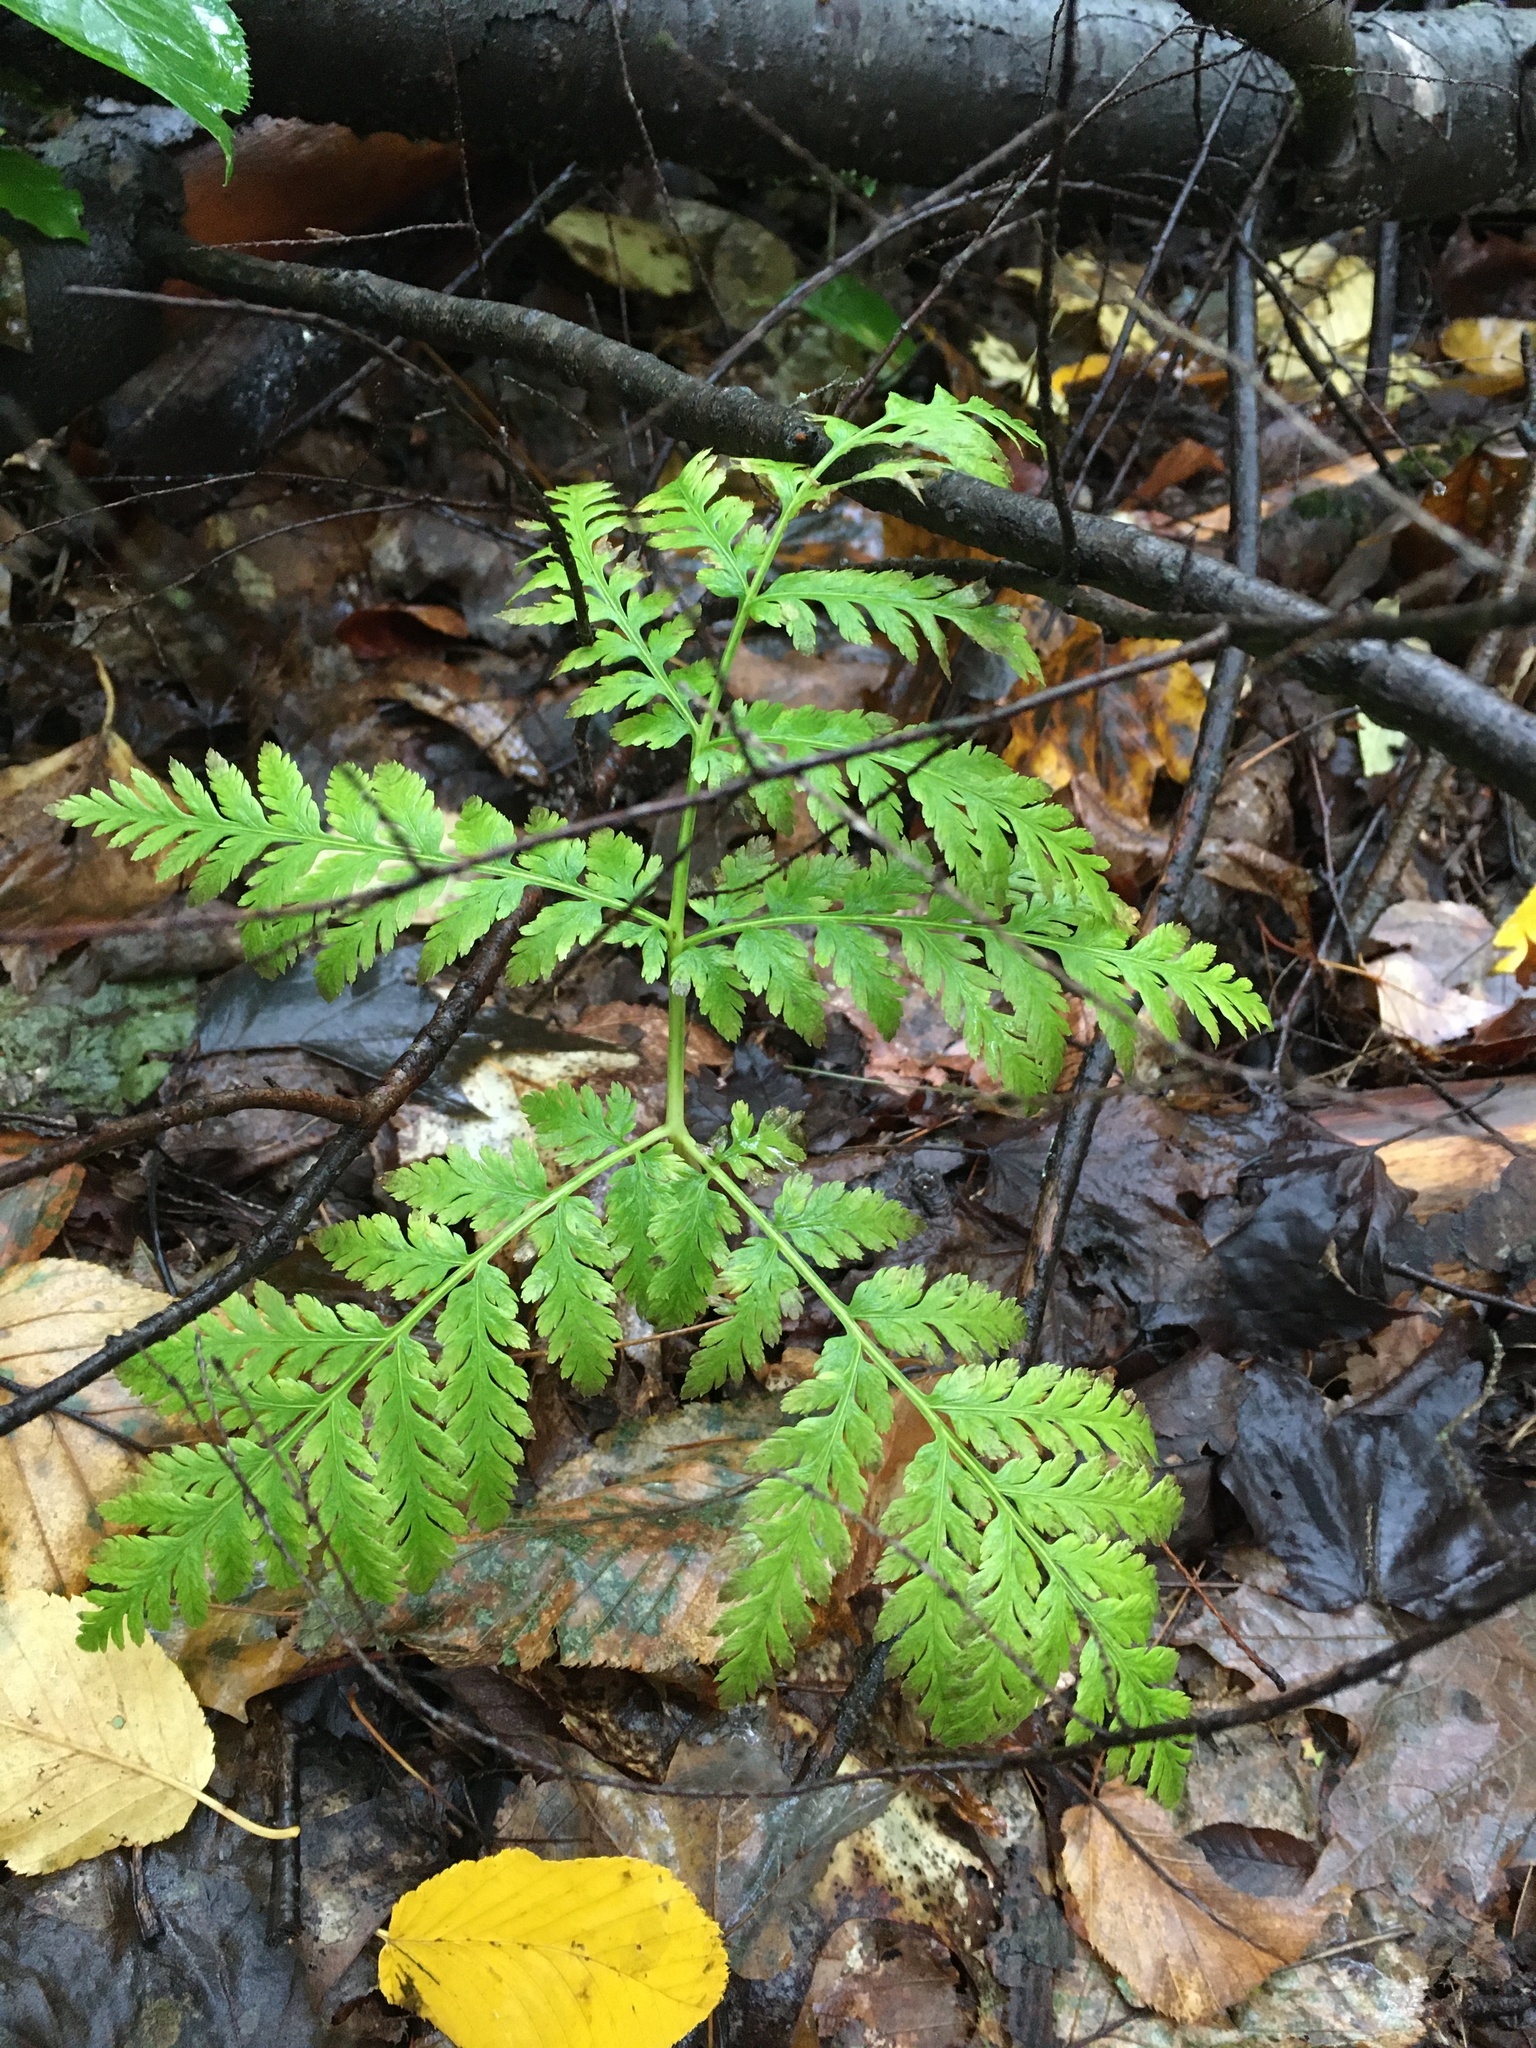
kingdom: Plantae
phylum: Tracheophyta
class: Polypodiopsida
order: Ophioglossales
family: Ophioglossaceae
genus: Botrypus
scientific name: Botrypus virginianus
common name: Common grapefern
